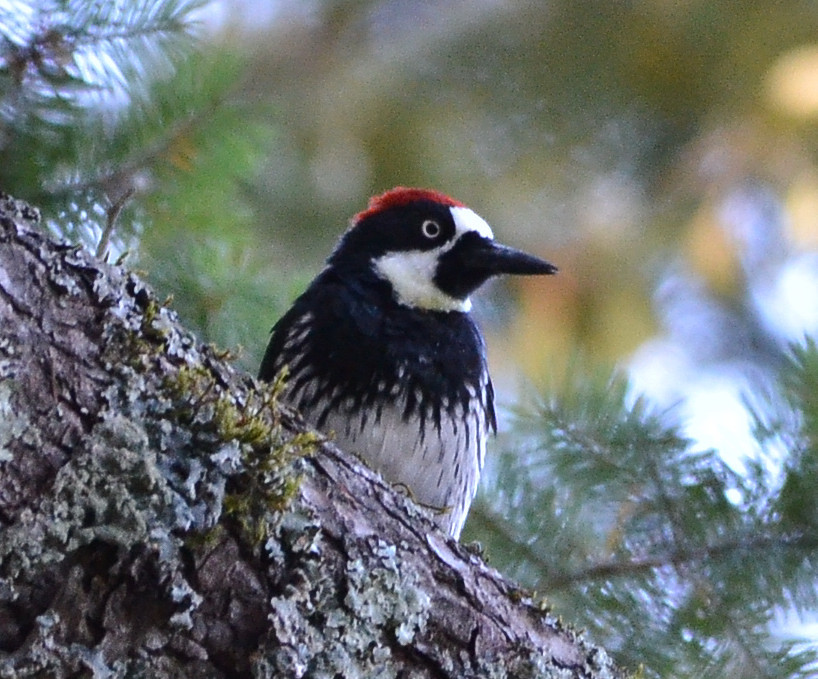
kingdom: Animalia
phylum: Chordata
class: Aves
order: Piciformes
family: Picidae
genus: Melanerpes
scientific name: Melanerpes formicivorus
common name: Acorn woodpecker
